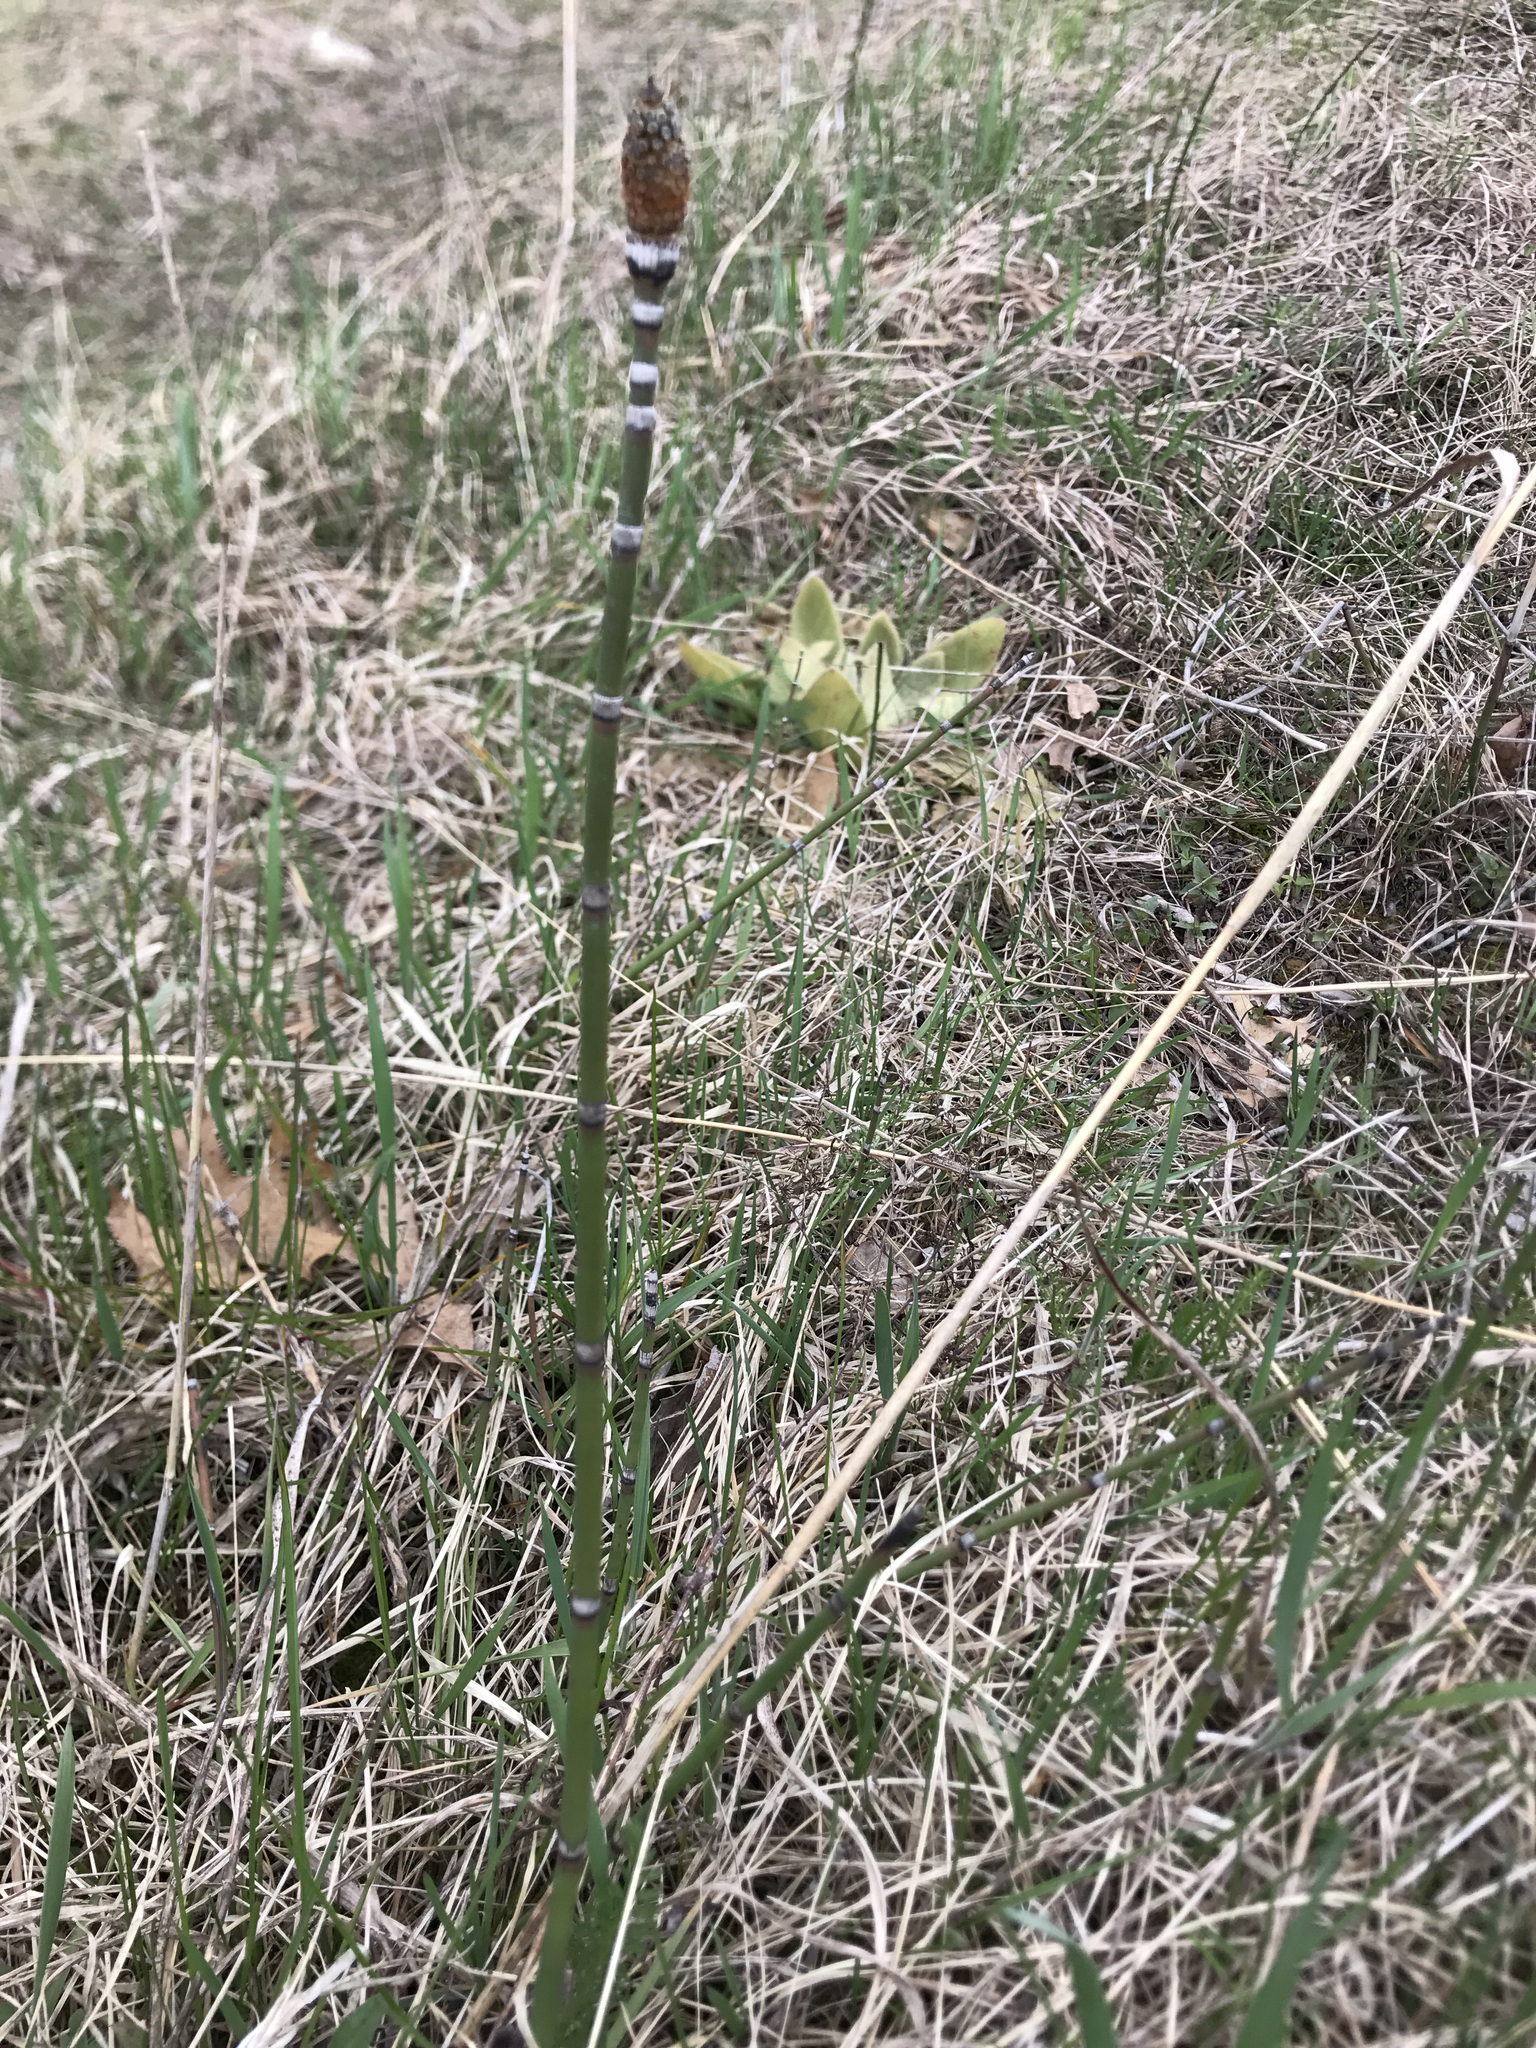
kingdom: Plantae
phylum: Tracheophyta
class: Polypodiopsida
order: Equisetales
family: Equisetaceae
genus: Equisetum
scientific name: Equisetum hyemale
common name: Rough horsetail
